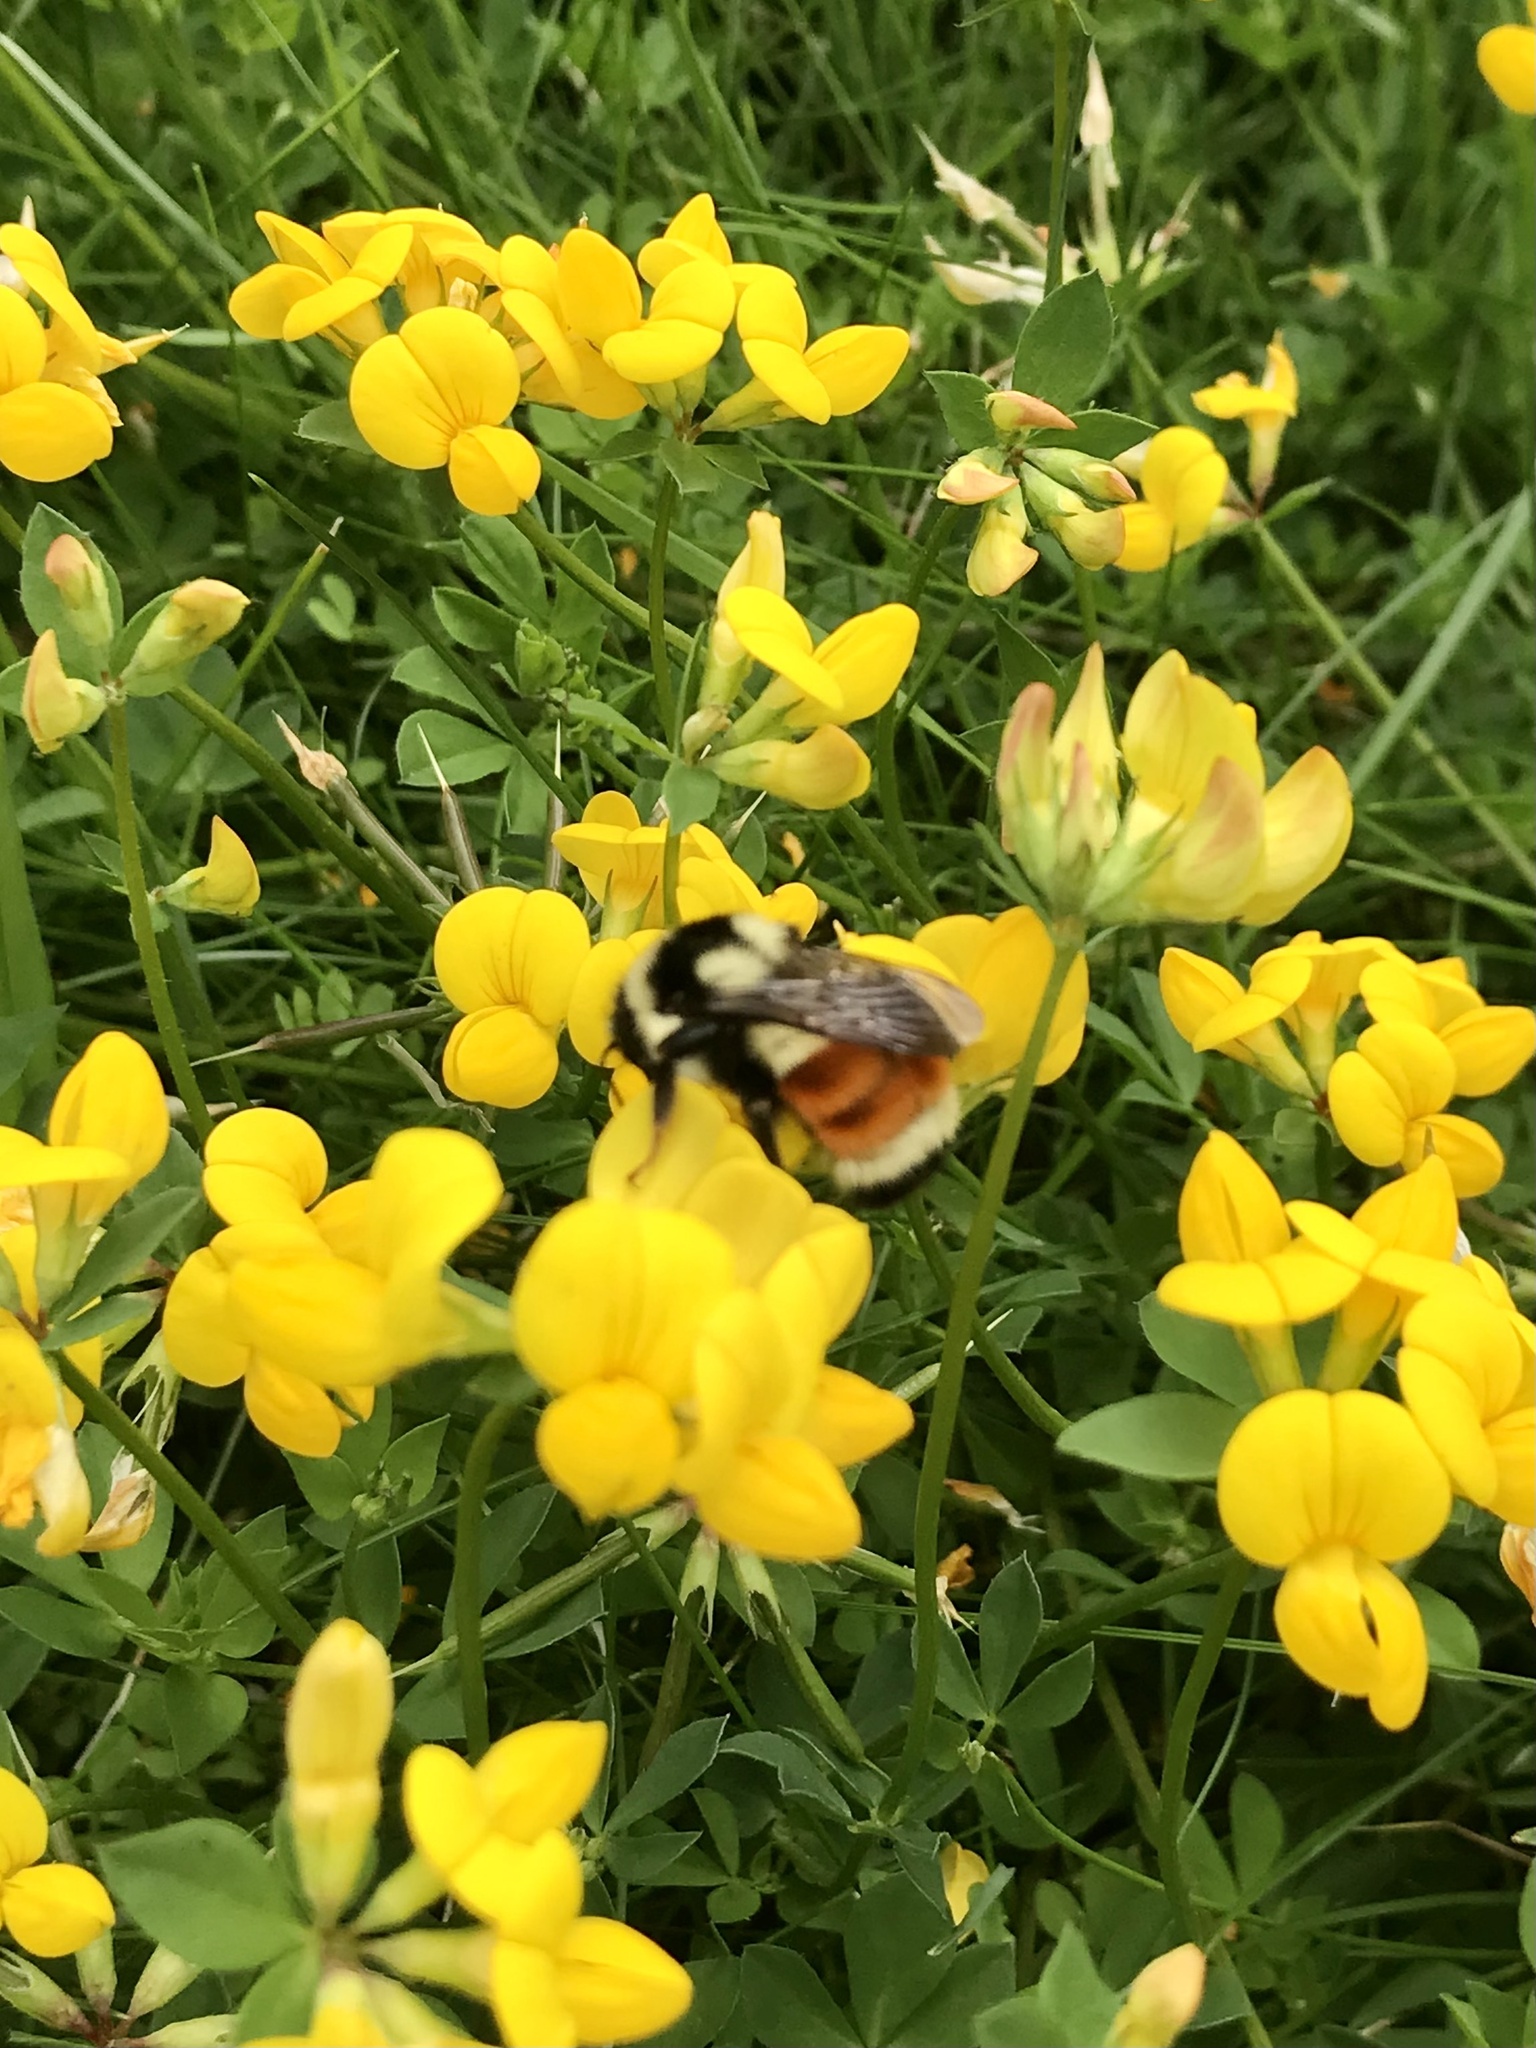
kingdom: Animalia
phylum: Arthropoda
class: Insecta
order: Hymenoptera
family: Apidae
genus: Bombus
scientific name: Bombus ternarius
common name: Tri-colored bumble bee
